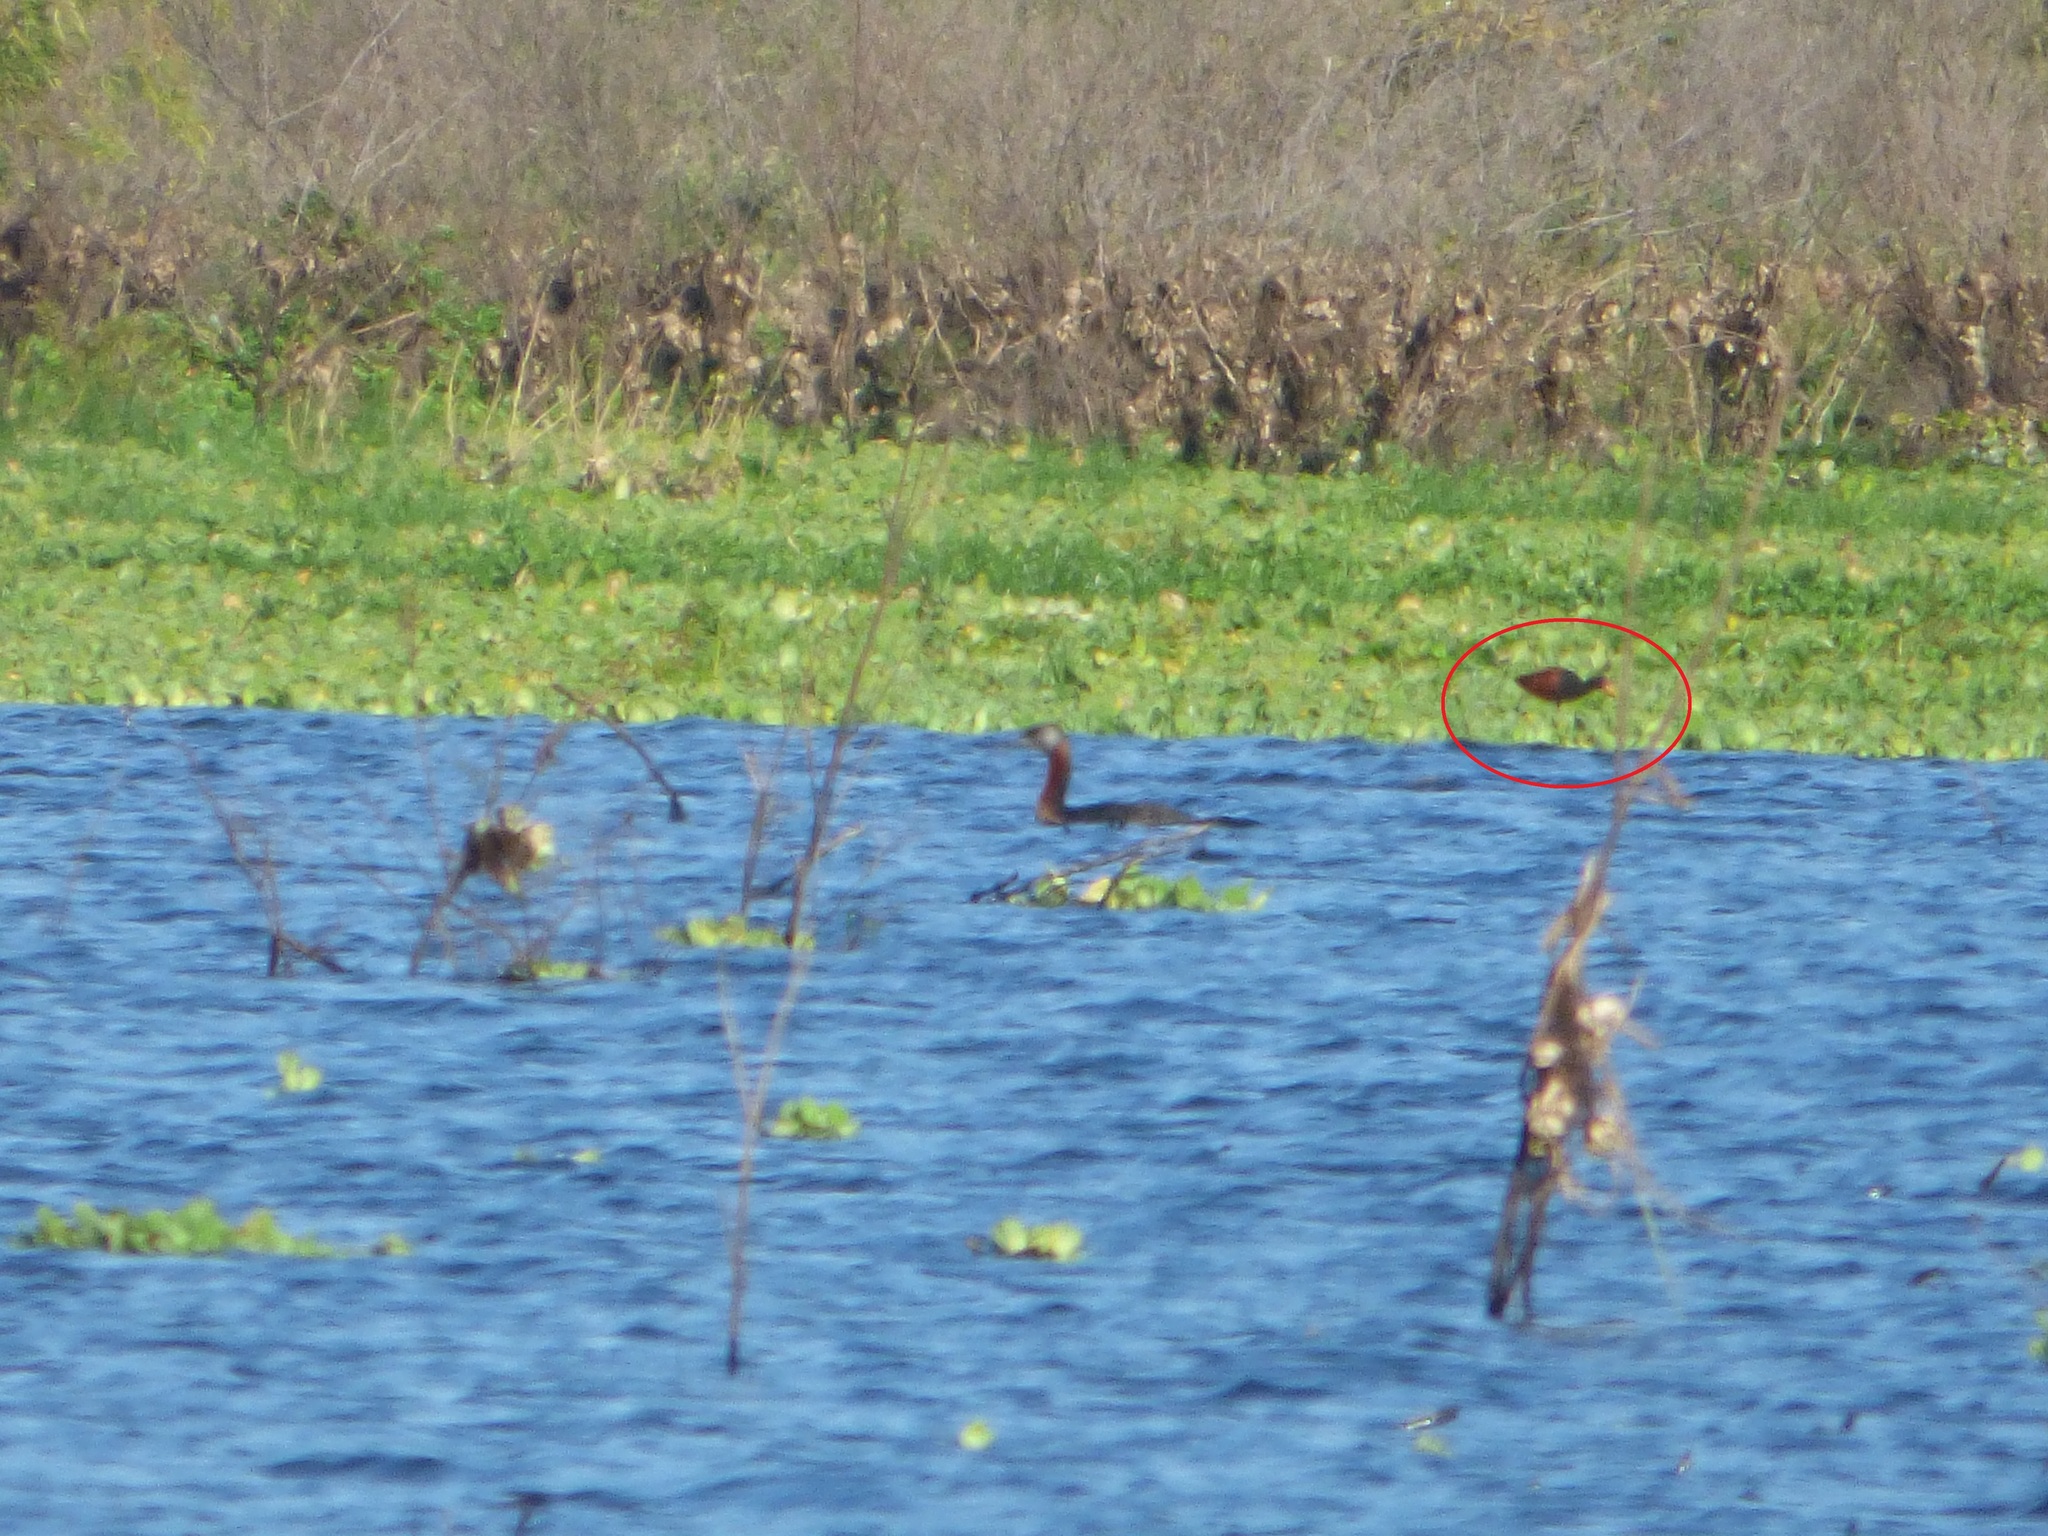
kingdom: Animalia
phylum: Chordata
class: Aves
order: Charadriiformes
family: Jacanidae
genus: Jacana
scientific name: Jacana jacana
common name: Wattled jacana
